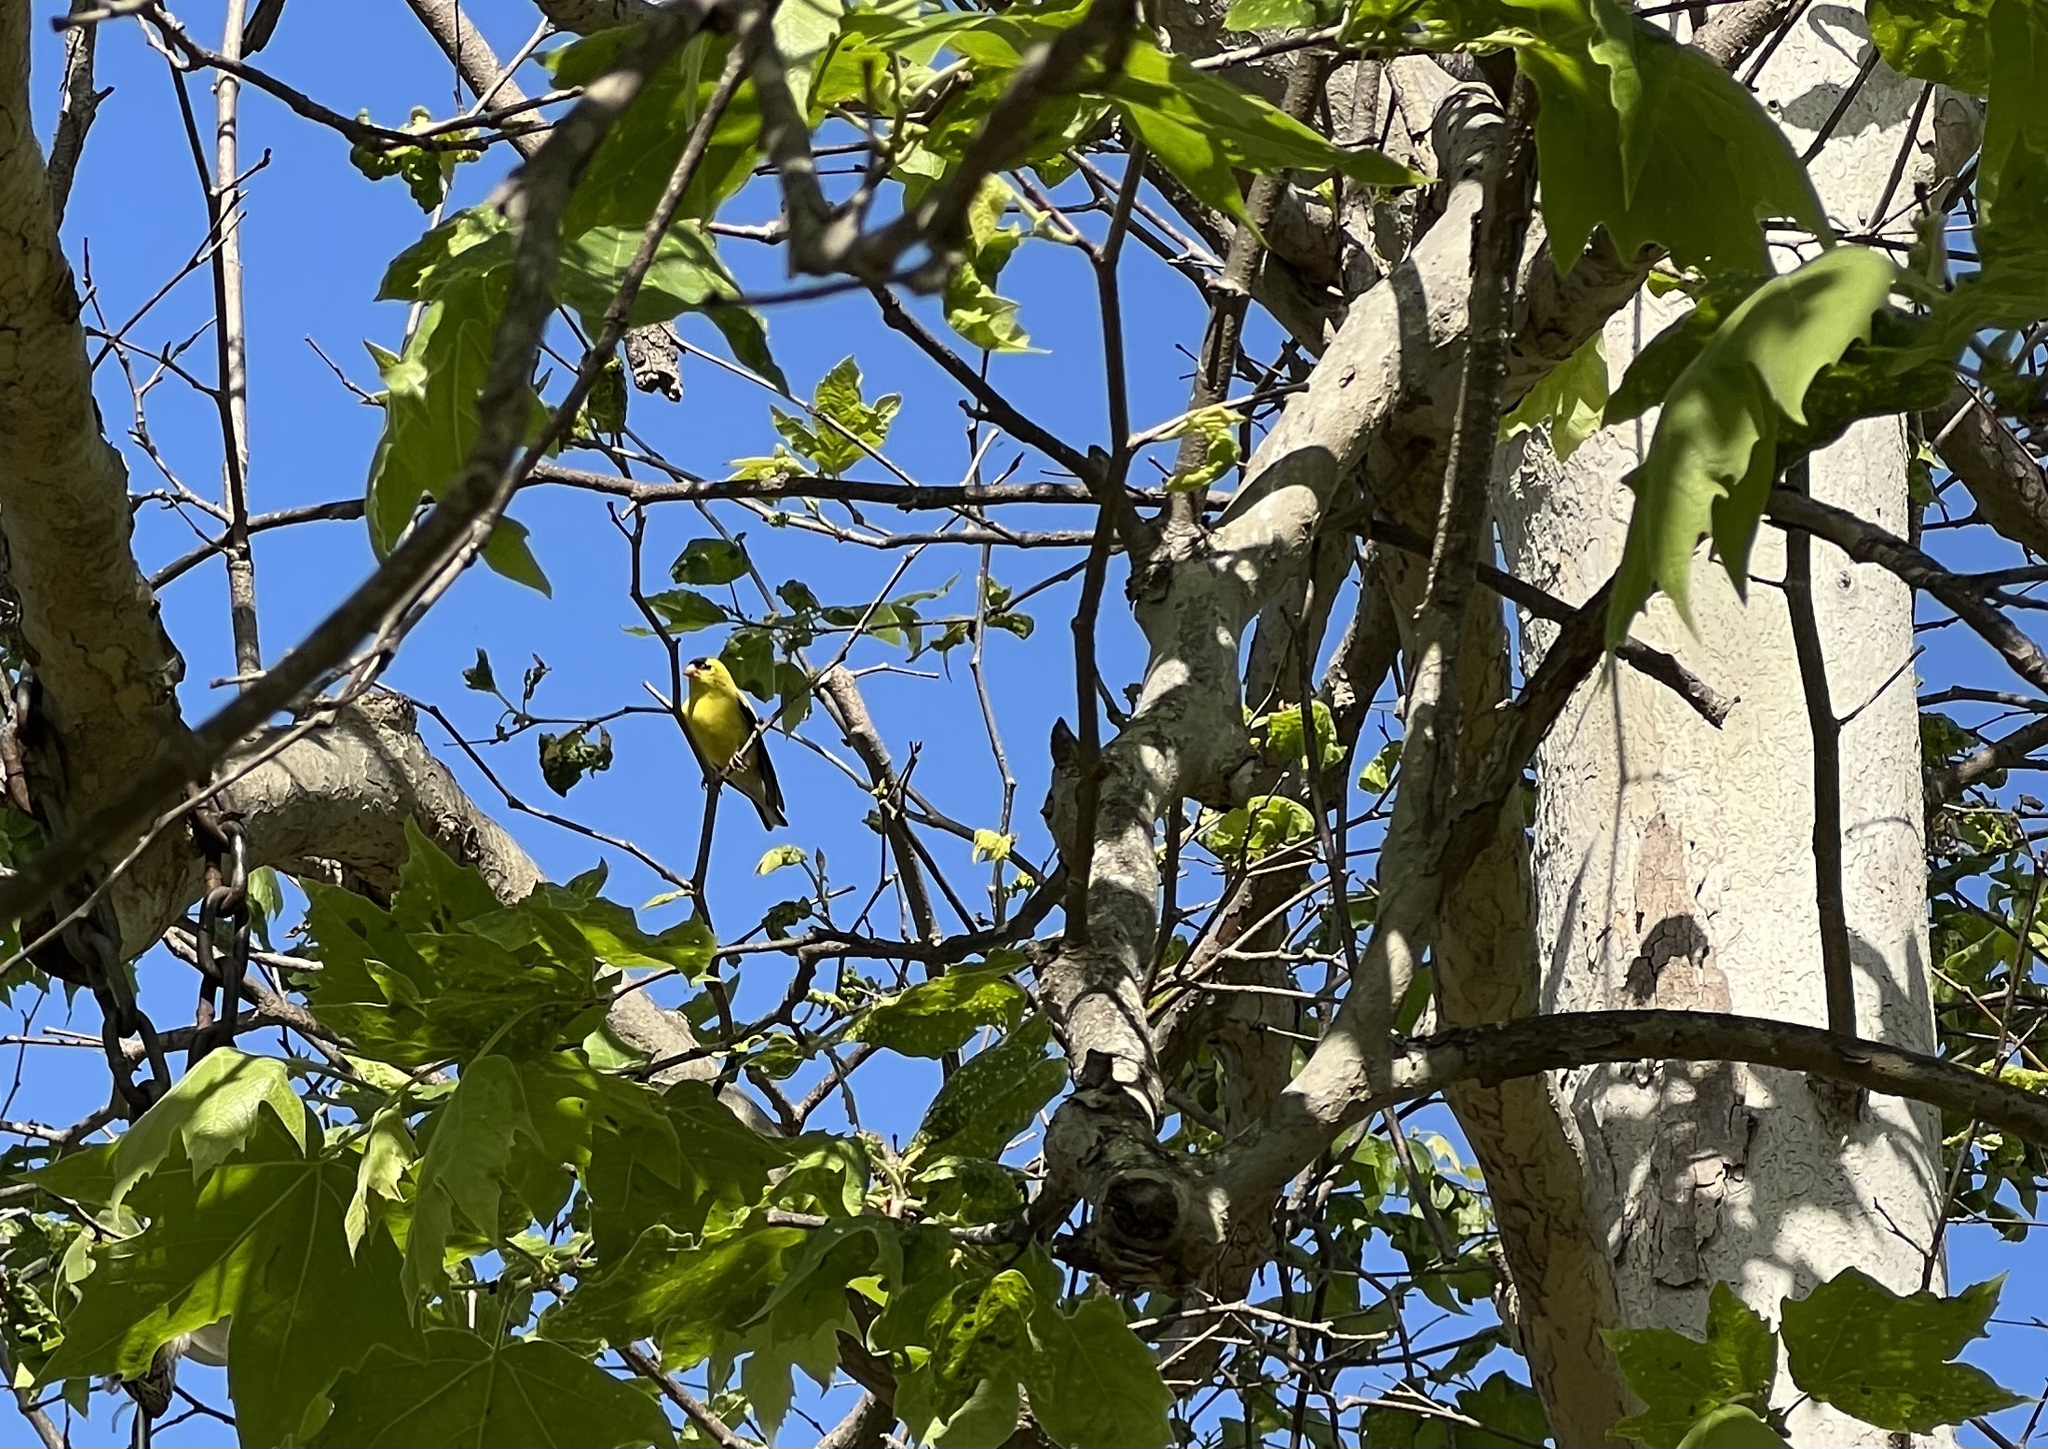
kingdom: Animalia
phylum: Chordata
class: Aves
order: Passeriformes
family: Fringillidae
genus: Spinus
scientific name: Spinus tristis
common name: American goldfinch
